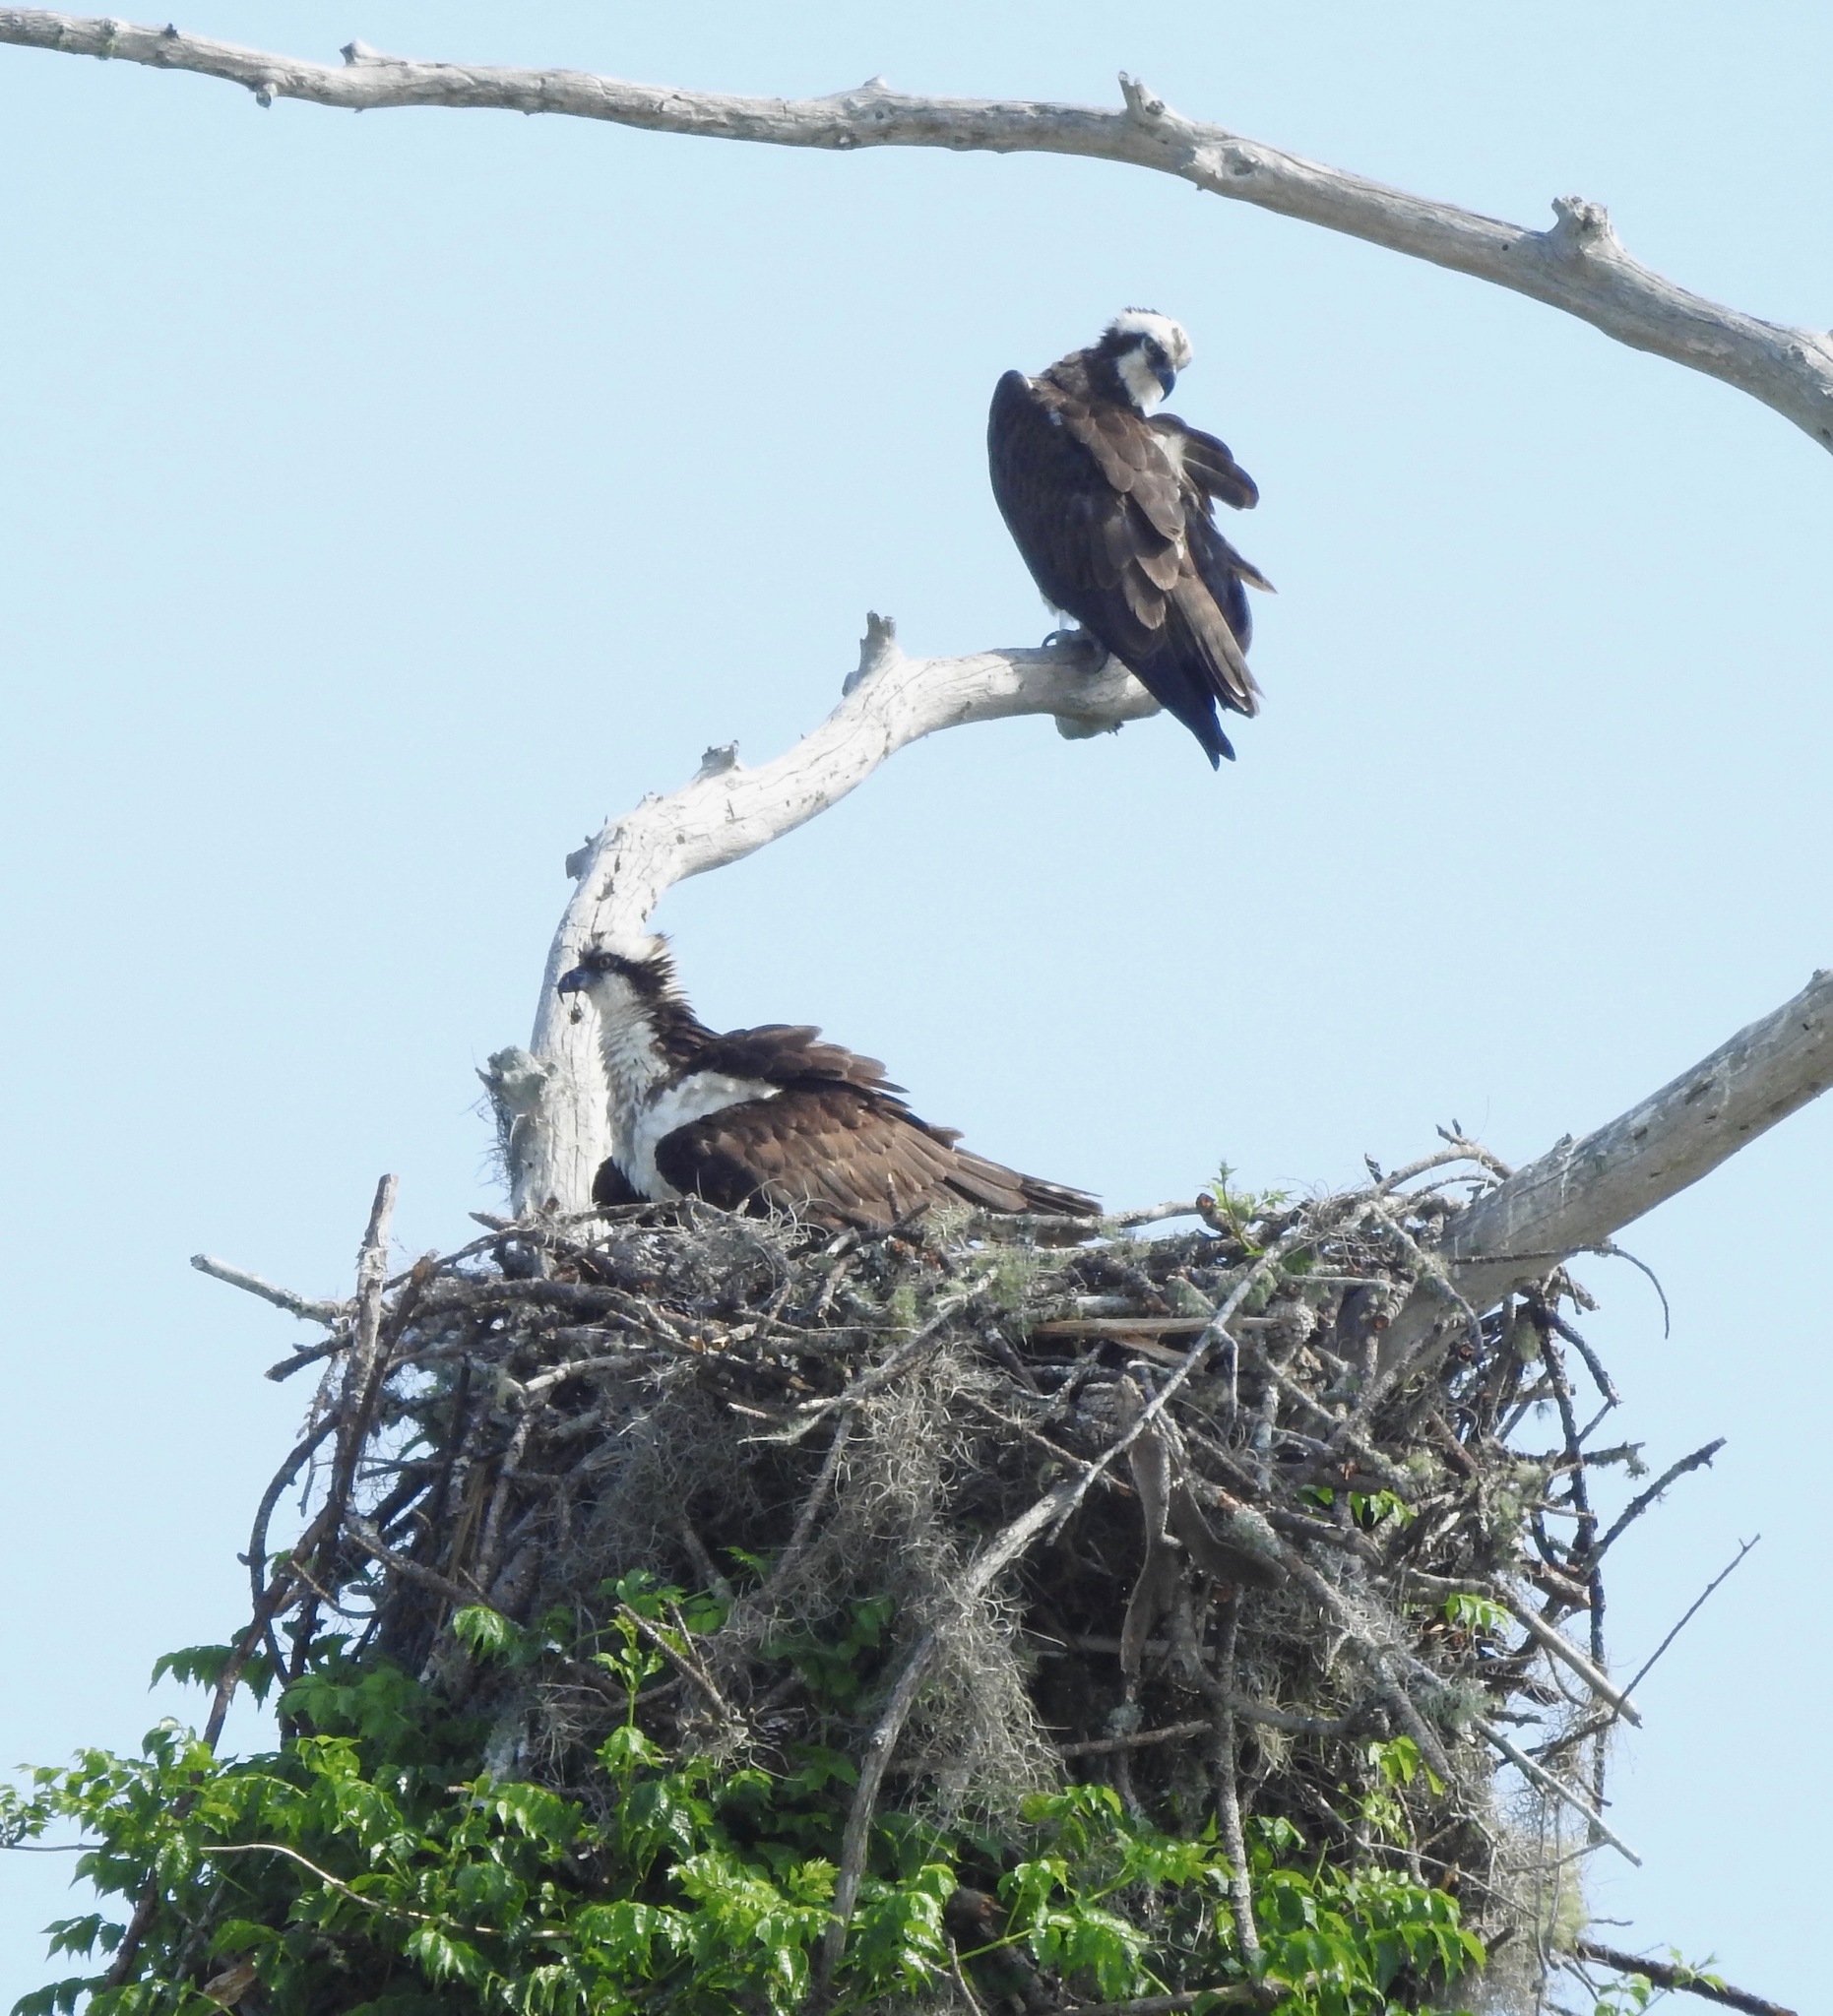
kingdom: Animalia
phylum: Chordata
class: Aves
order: Accipitriformes
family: Pandionidae
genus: Pandion
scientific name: Pandion haliaetus
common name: Osprey
